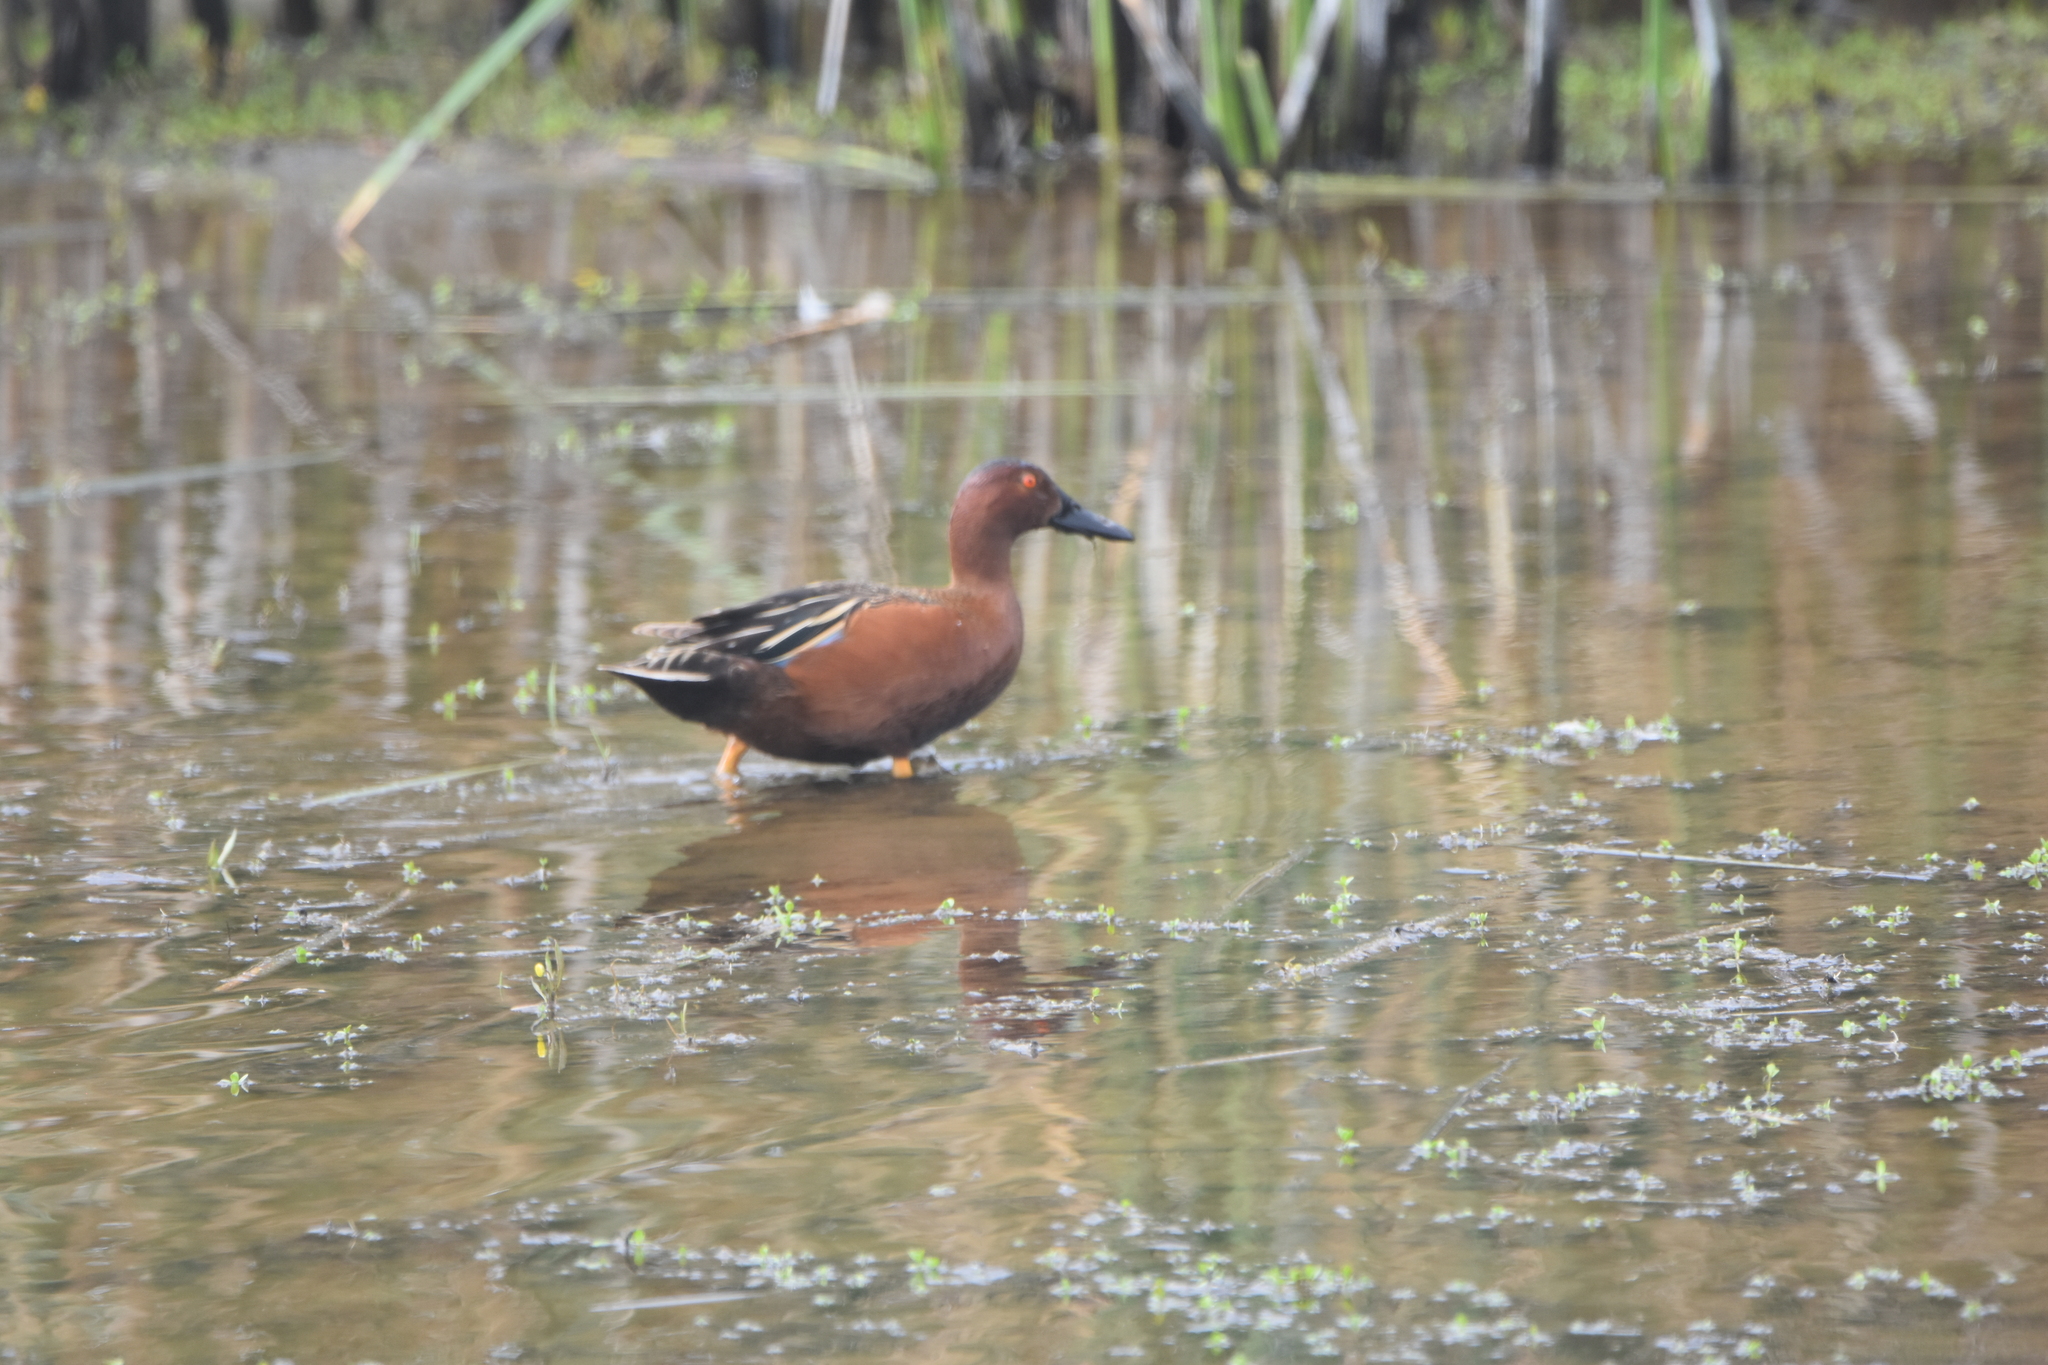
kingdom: Animalia
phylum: Chordata
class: Aves
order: Anseriformes
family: Anatidae
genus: Spatula
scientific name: Spatula cyanoptera
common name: Cinnamon teal
